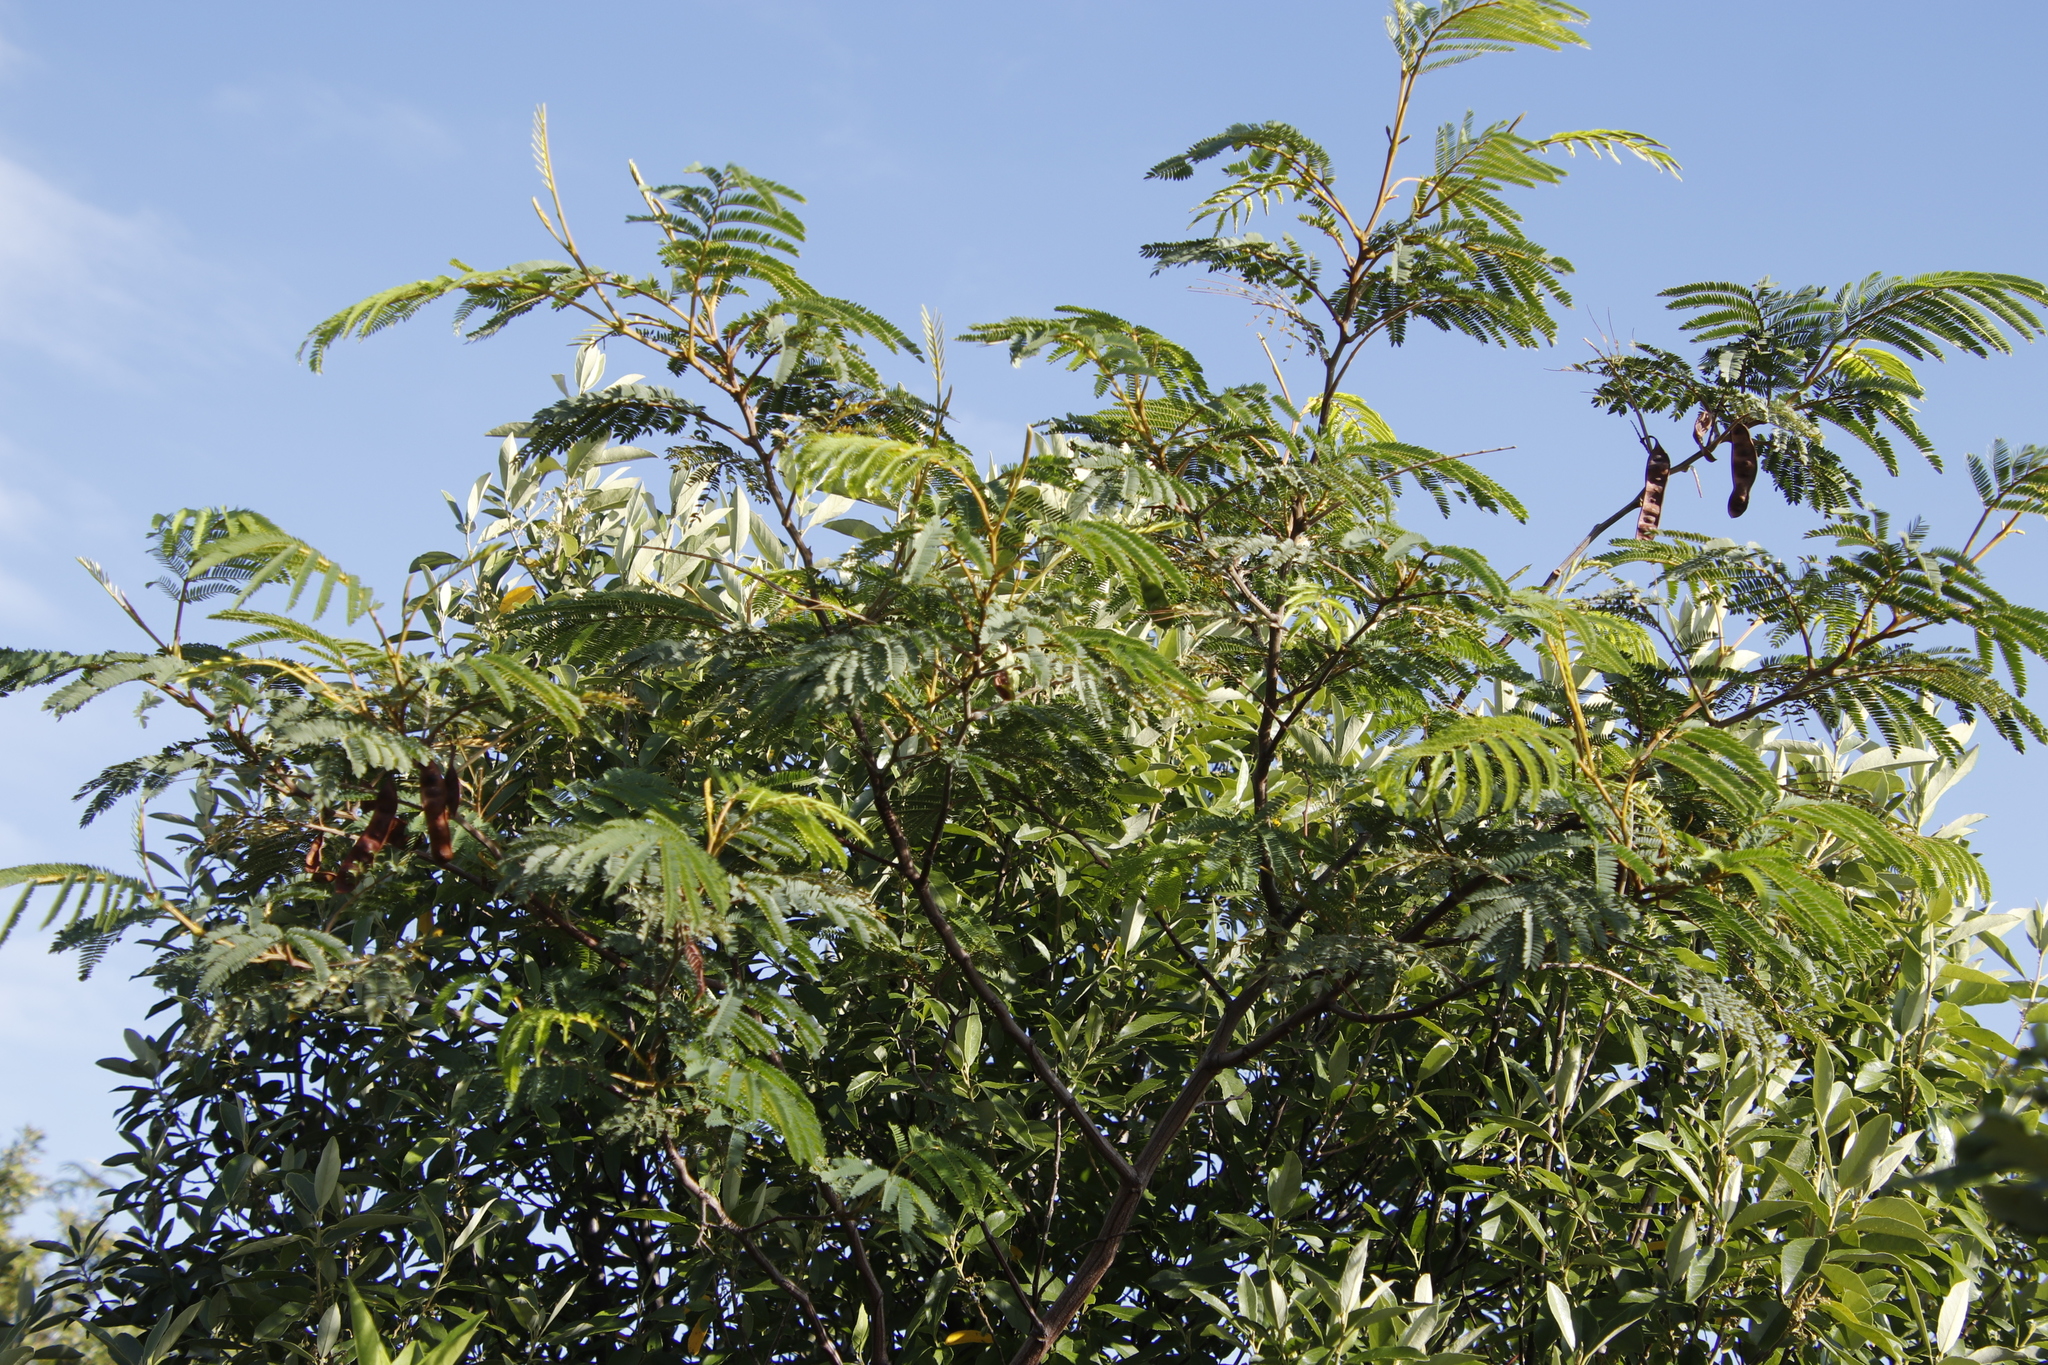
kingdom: Plantae
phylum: Tracheophyta
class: Magnoliopsida
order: Fabales
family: Fabaceae
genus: Paraserianthes
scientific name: Paraserianthes lophantha
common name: Plume albizia
